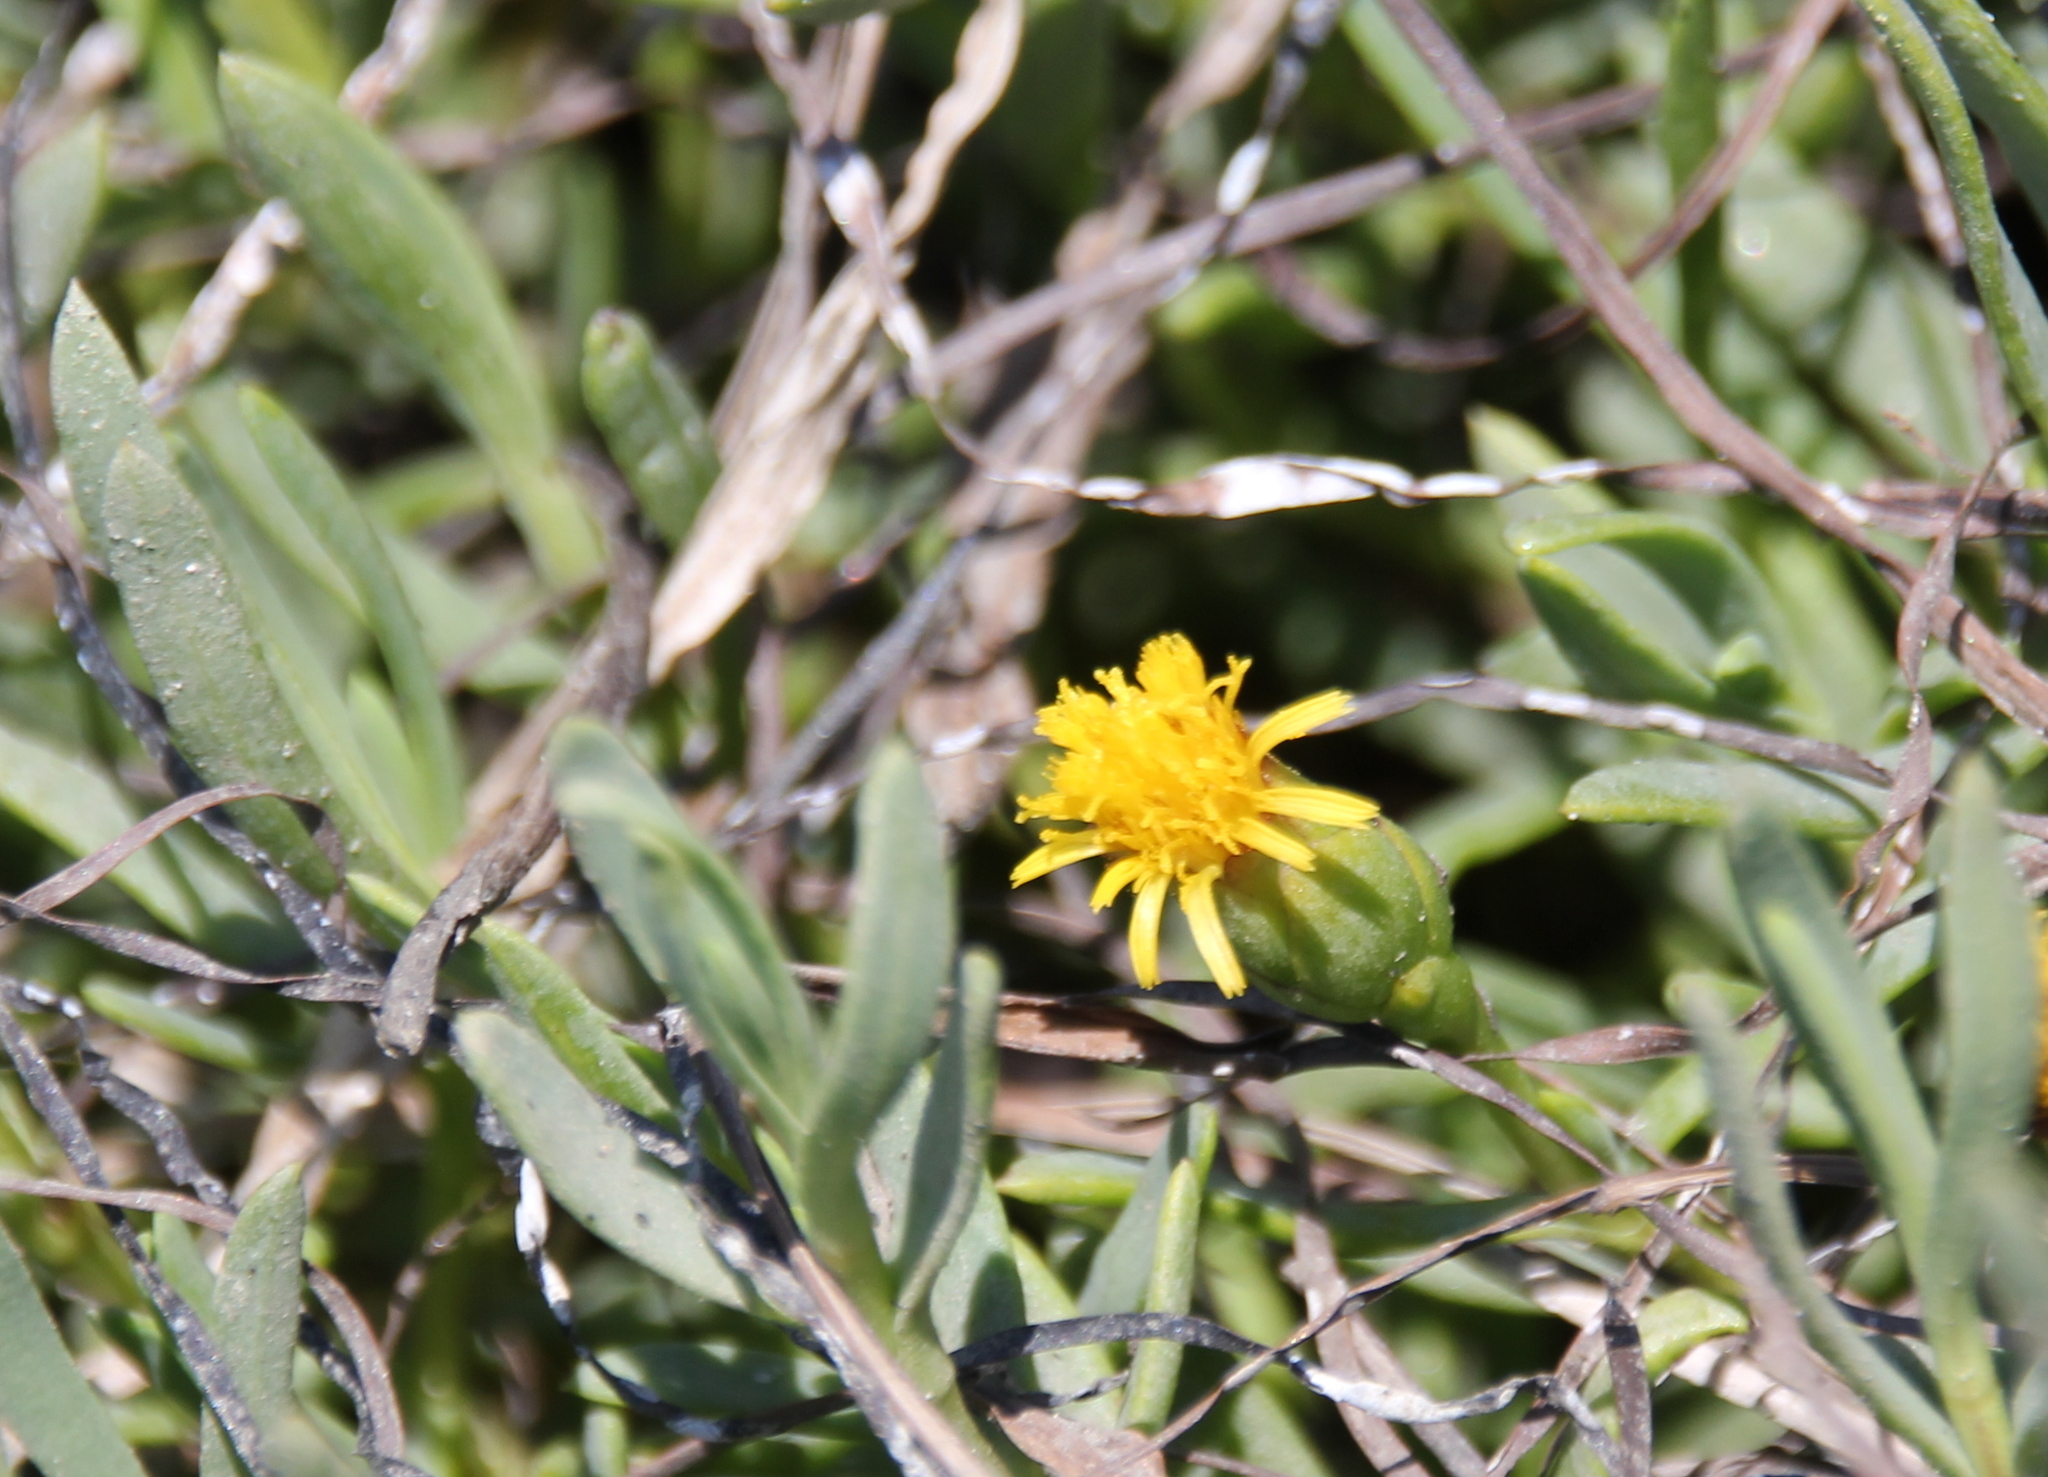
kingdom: Plantae
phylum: Tracheophyta
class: Magnoliopsida
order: Asterales
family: Asteraceae
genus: Jaumea
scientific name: Jaumea carnosa
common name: Fleshy jaumea
